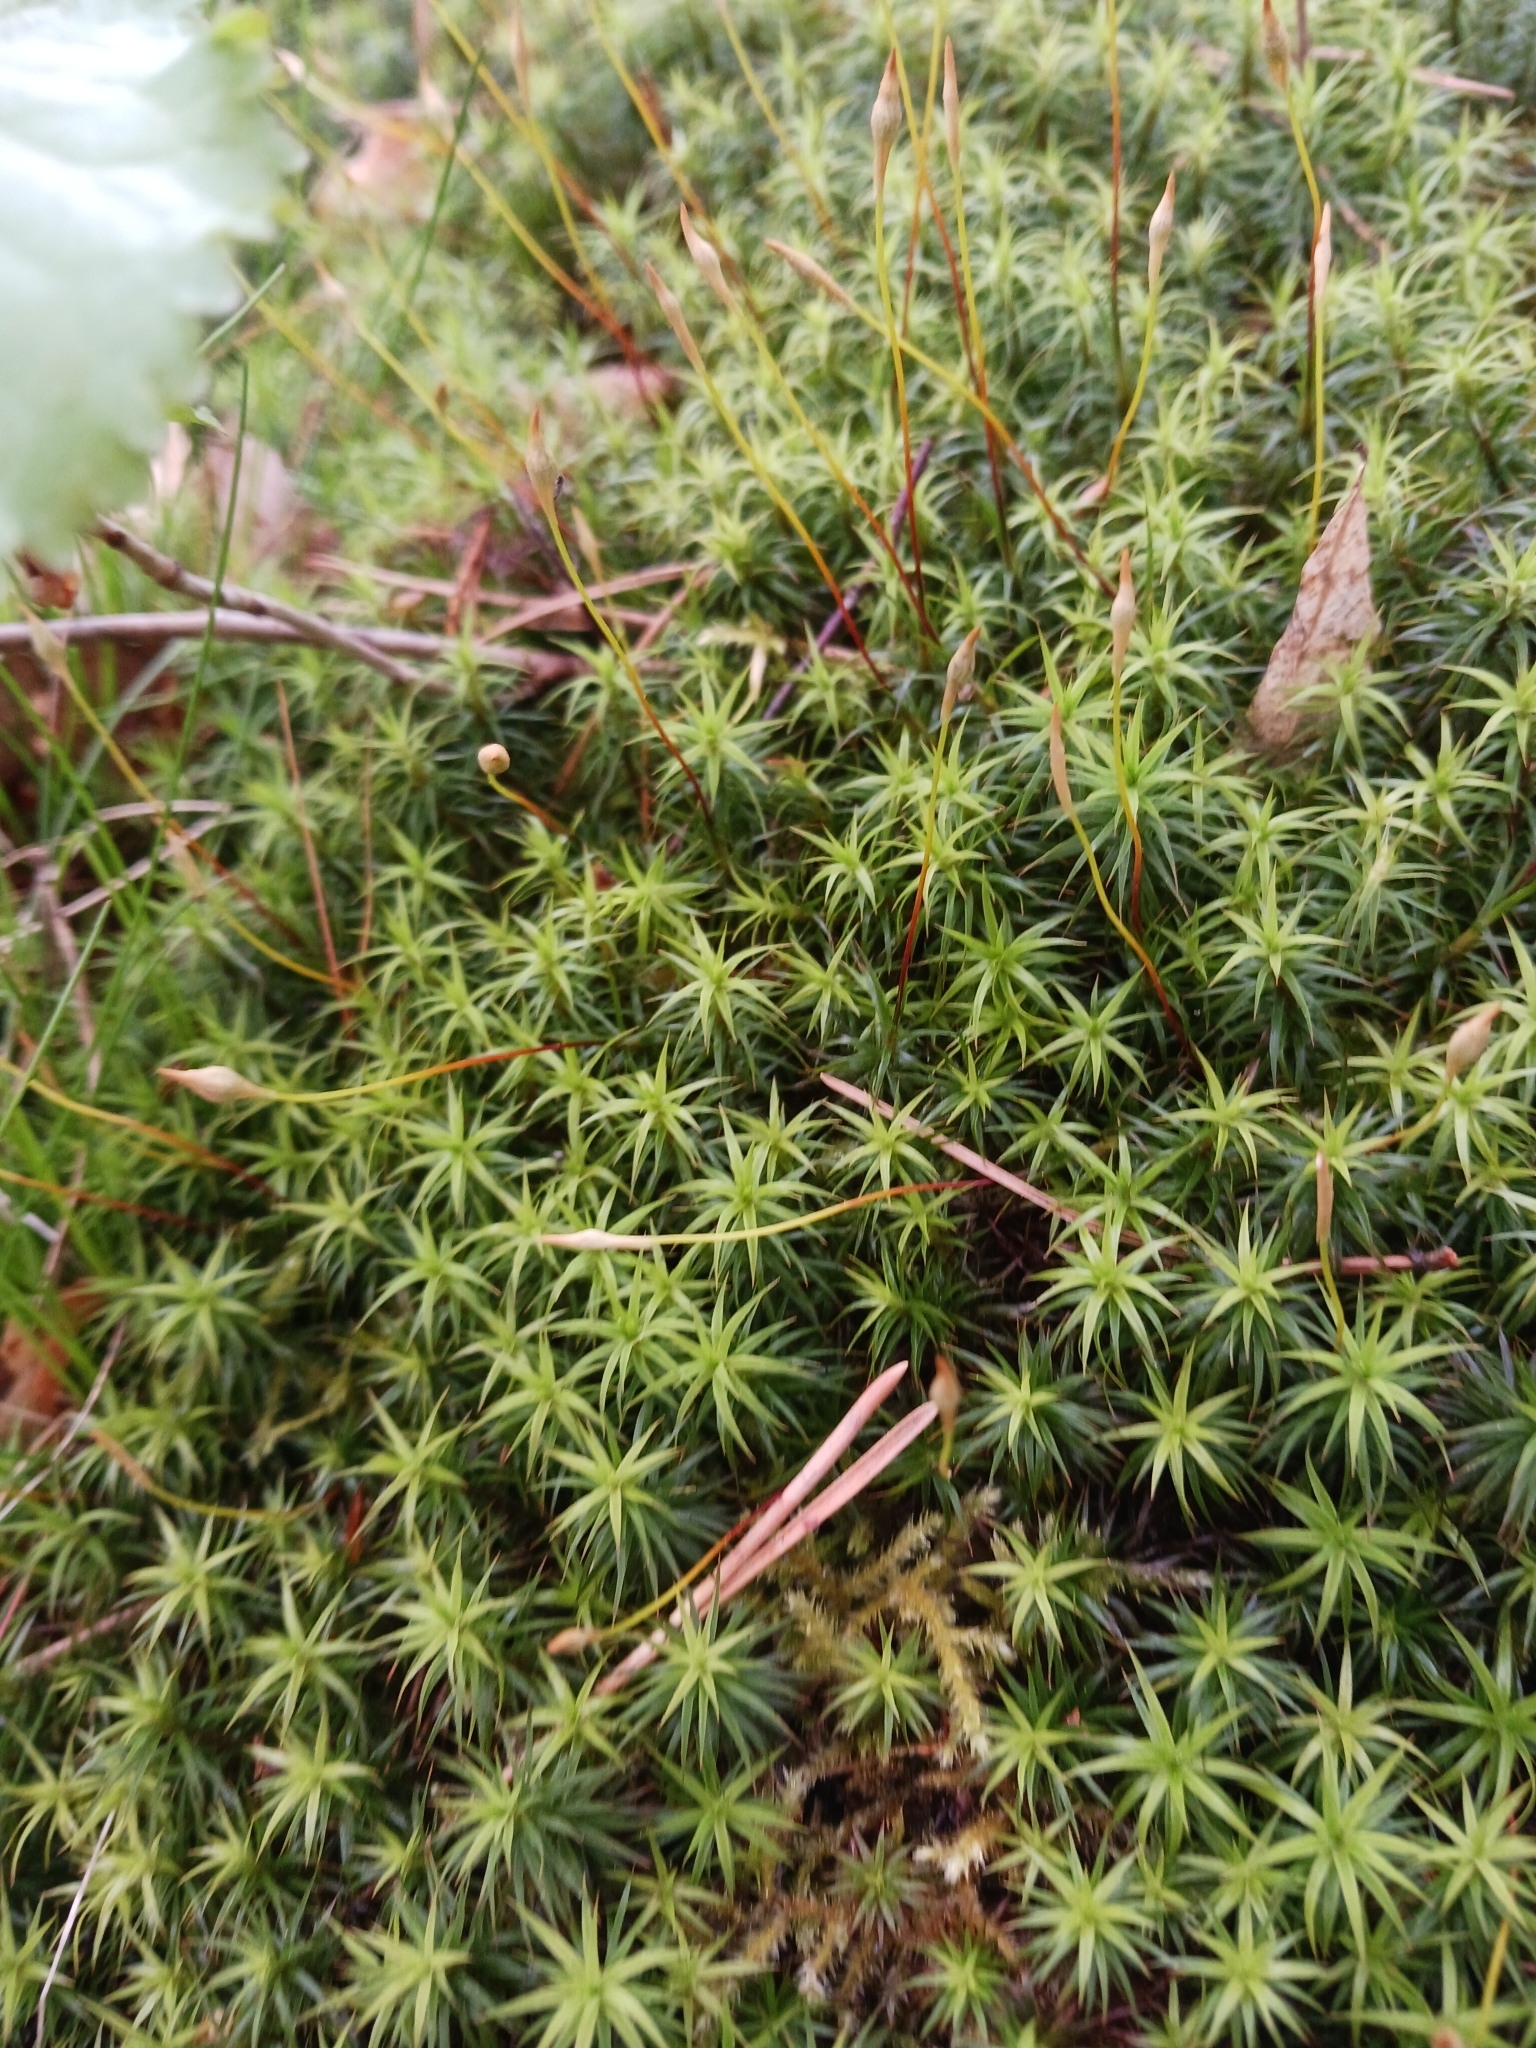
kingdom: Plantae
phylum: Bryophyta
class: Polytrichopsida
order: Polytrichales
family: Polytrichaceae
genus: Polytrichum
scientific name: Polytrichum formosum
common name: Bank haircap moss
